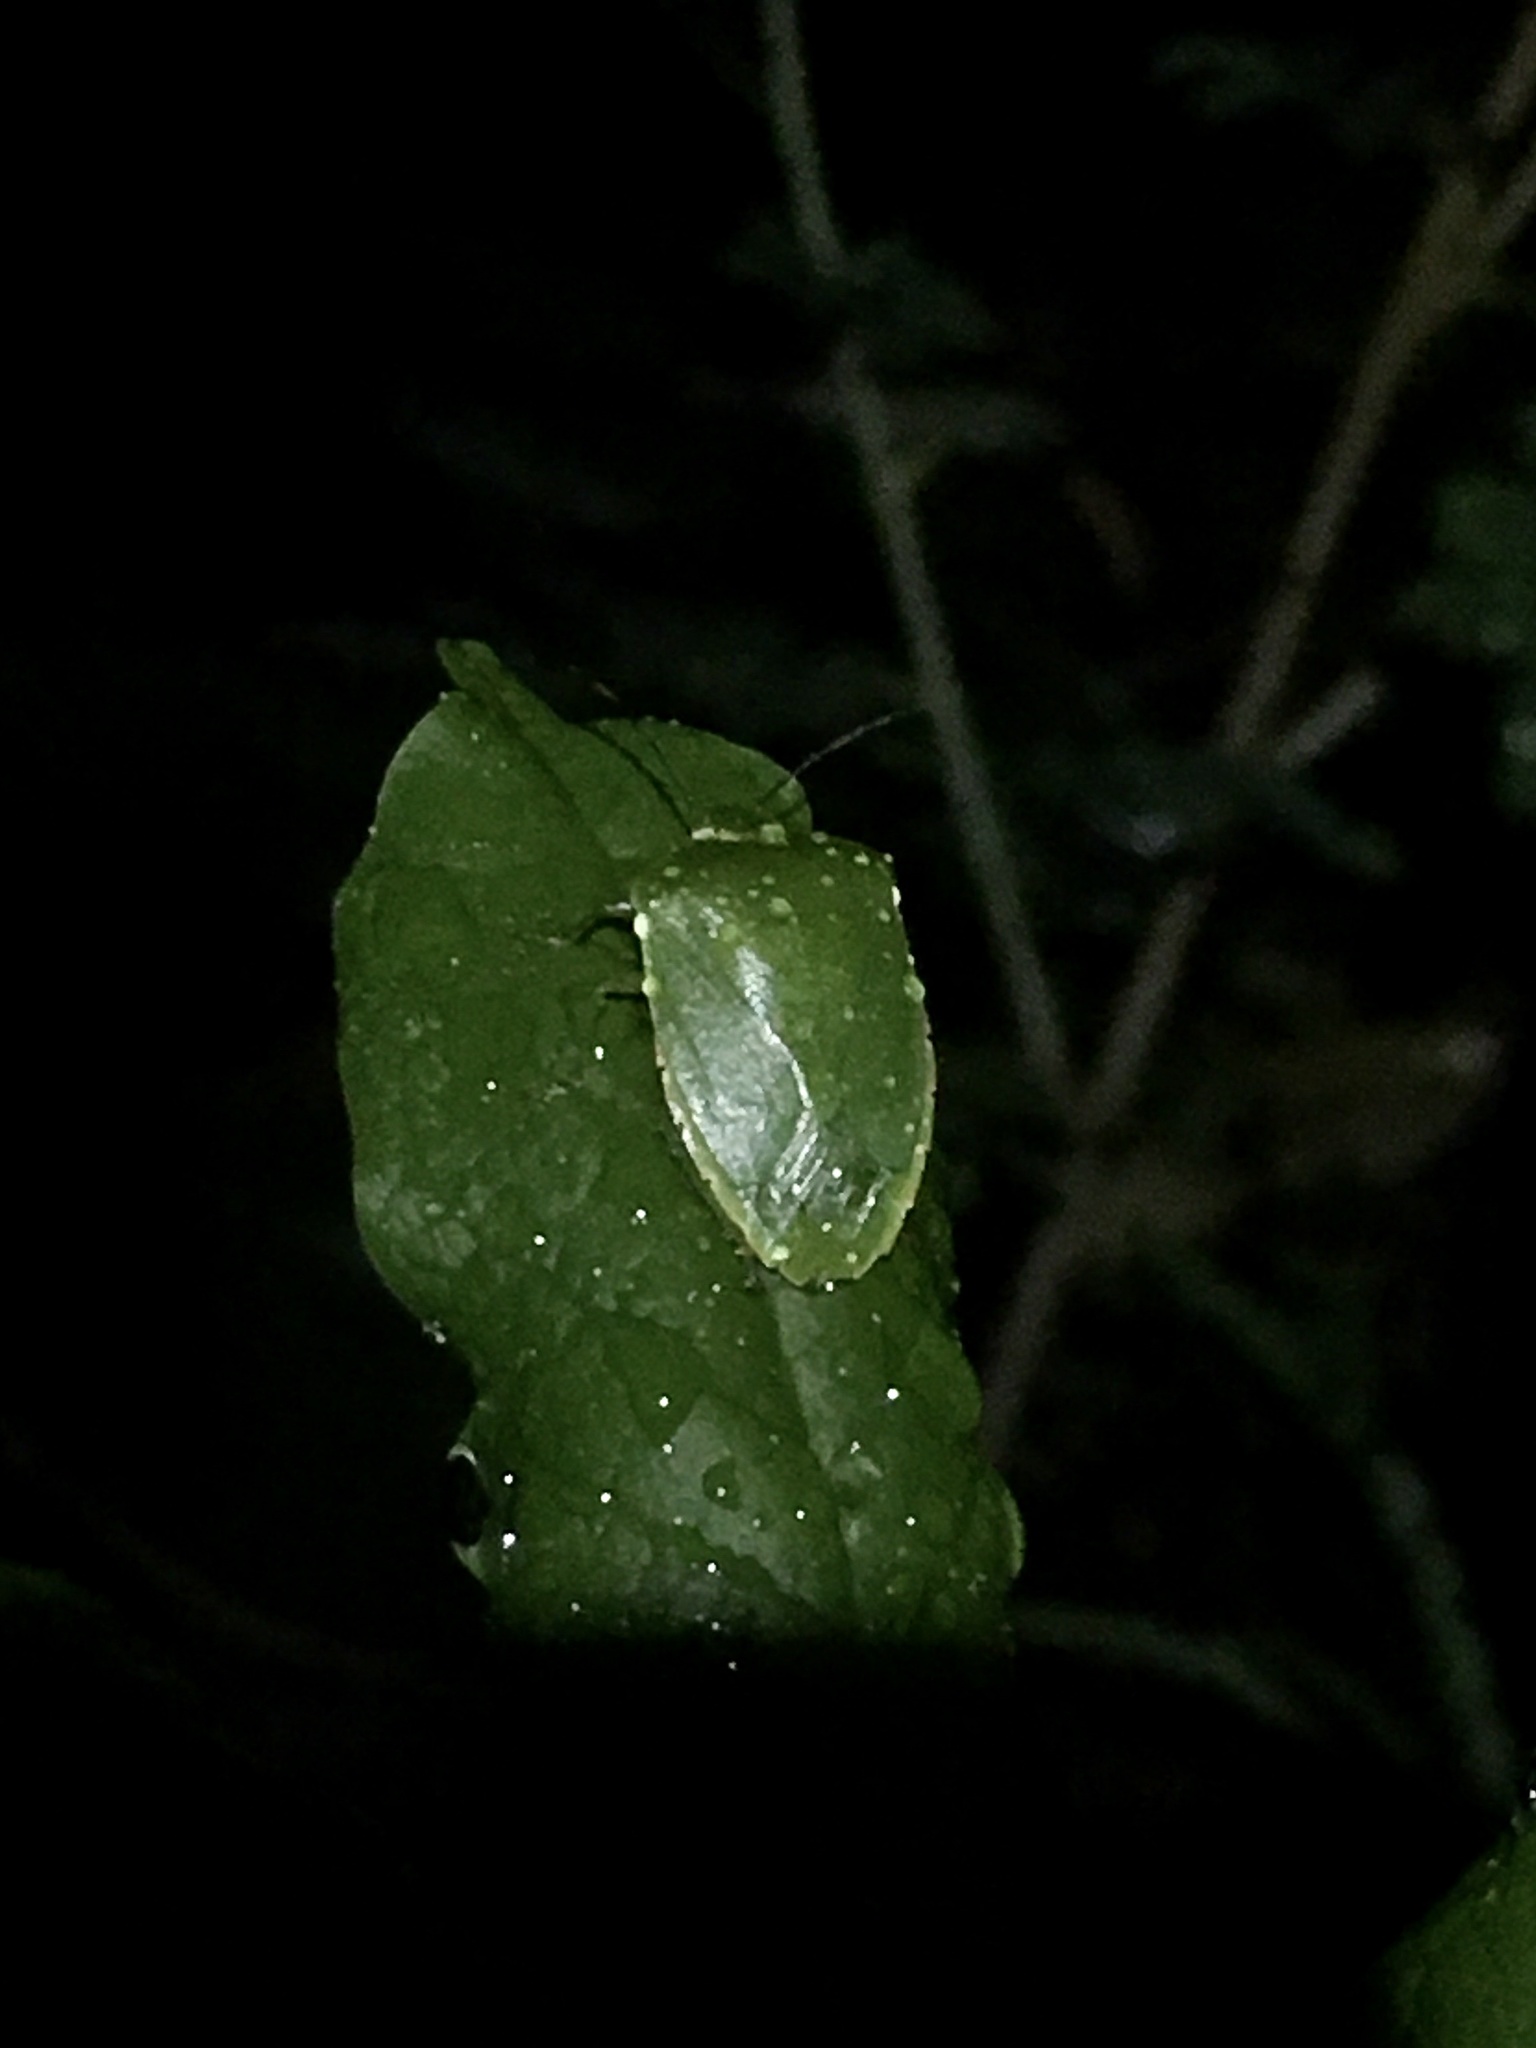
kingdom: Animalia
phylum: Arthropoda
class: Insecta
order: Hemiptera
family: Pentatomidae
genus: Chinavia
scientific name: Chinavia hilaris
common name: Green stink bug
